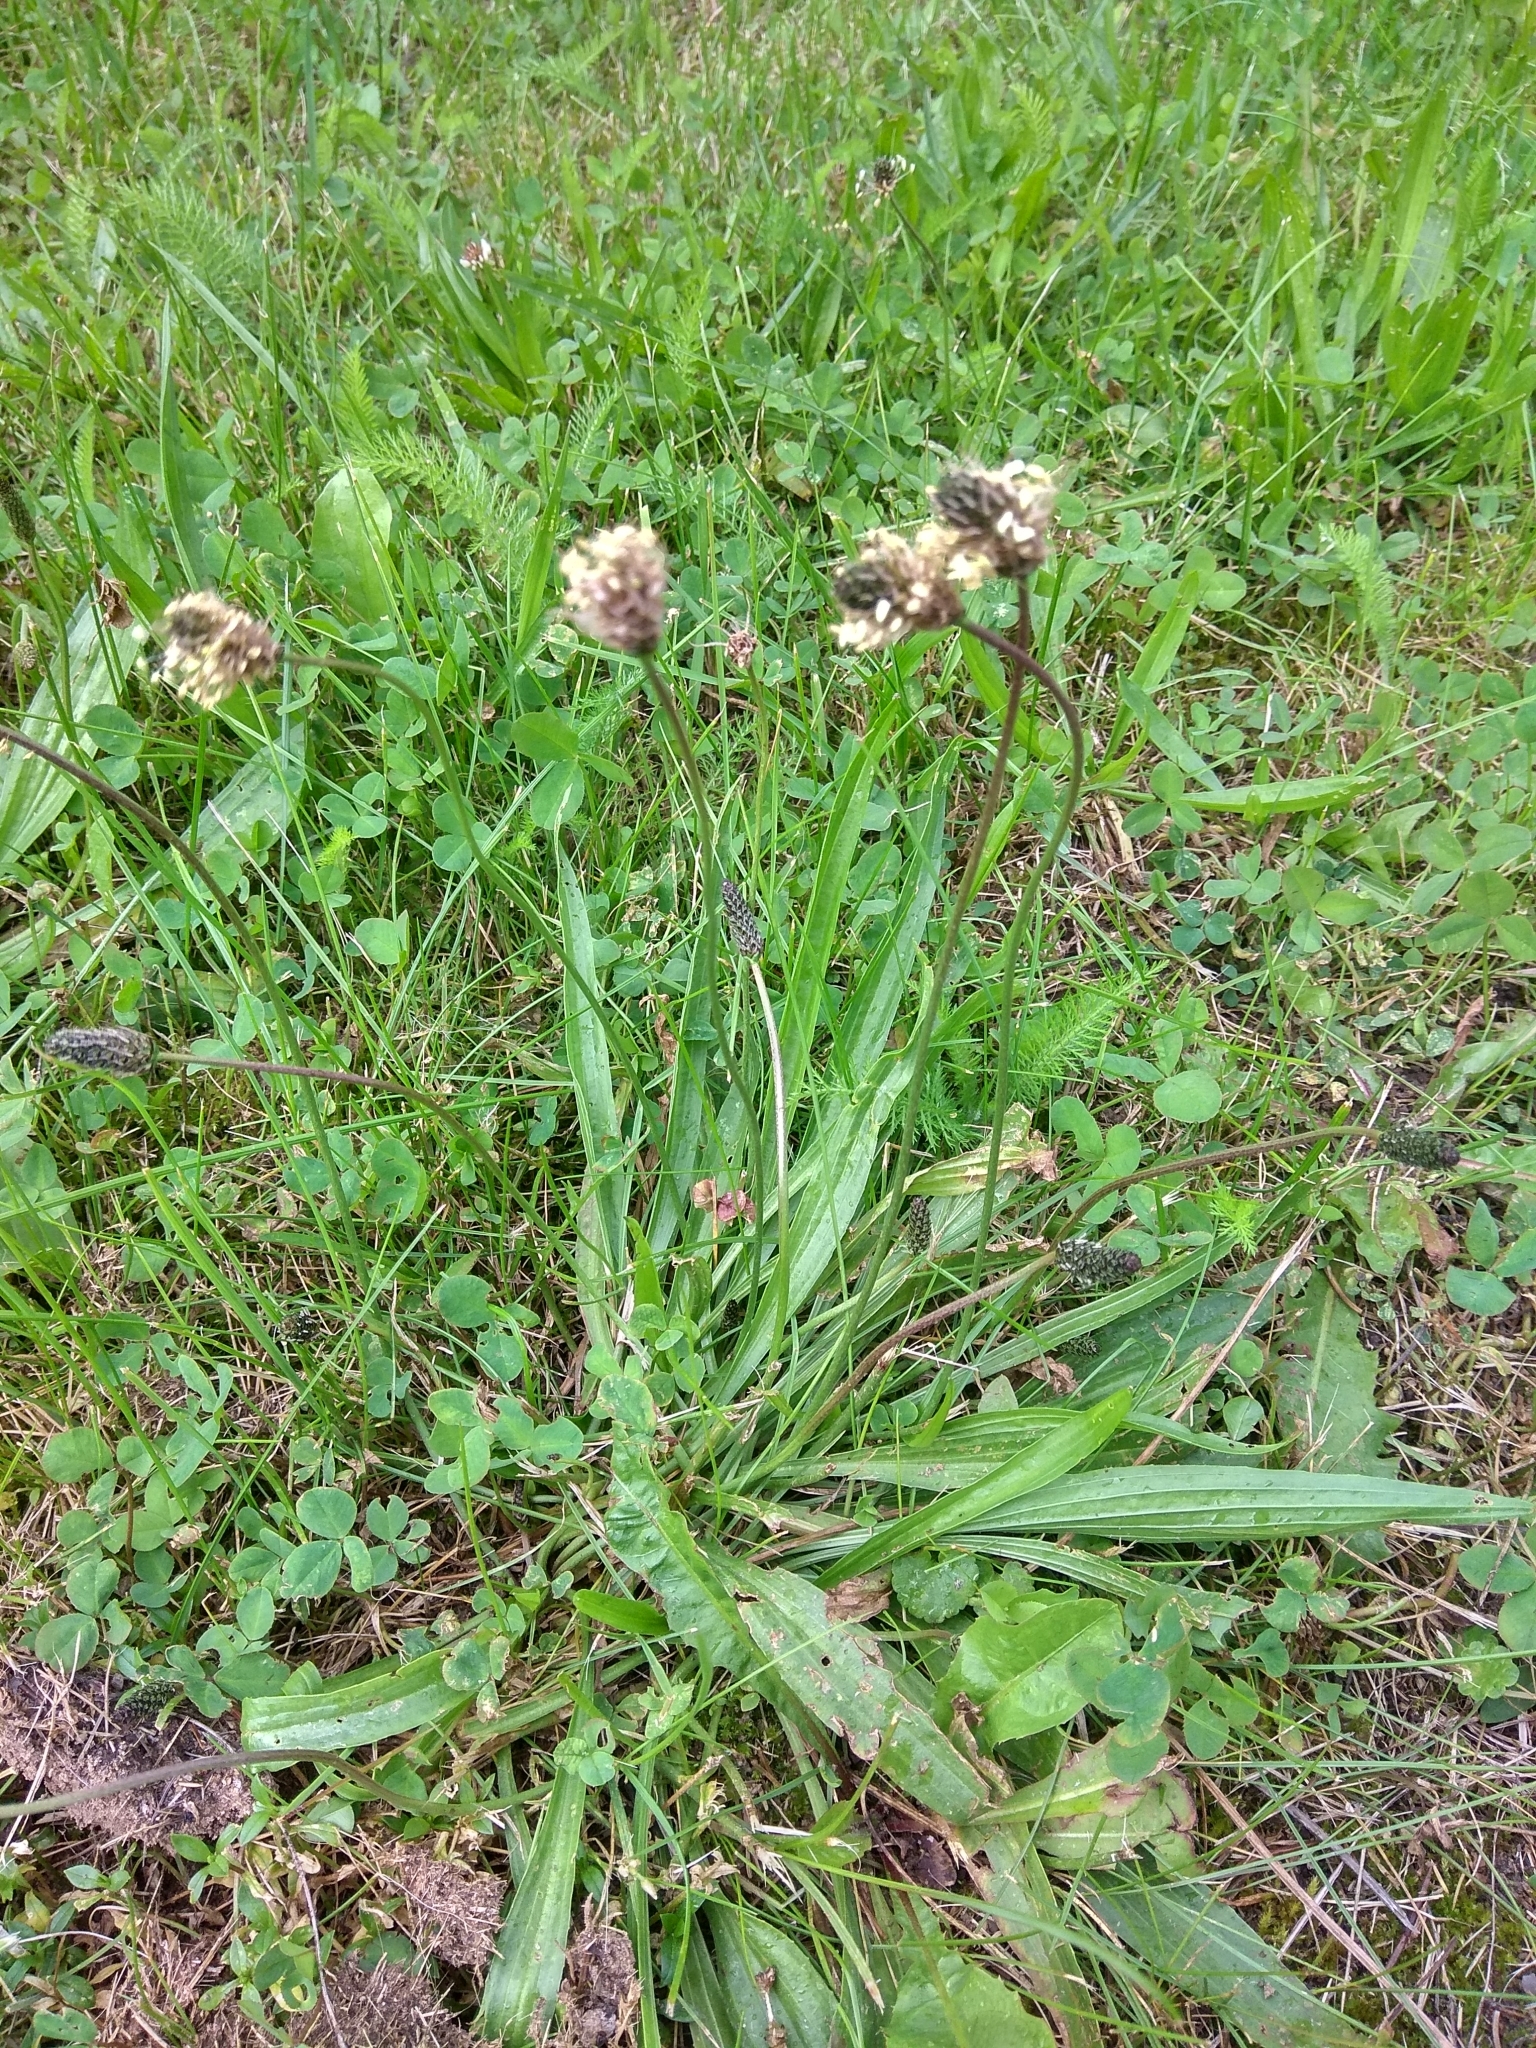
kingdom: Plantae
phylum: Tracheophyta
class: Magnoliopsida
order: Lamiales
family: Plantaginaceae
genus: Plantago
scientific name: Plantago lanceolata
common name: Ribwort plantain
